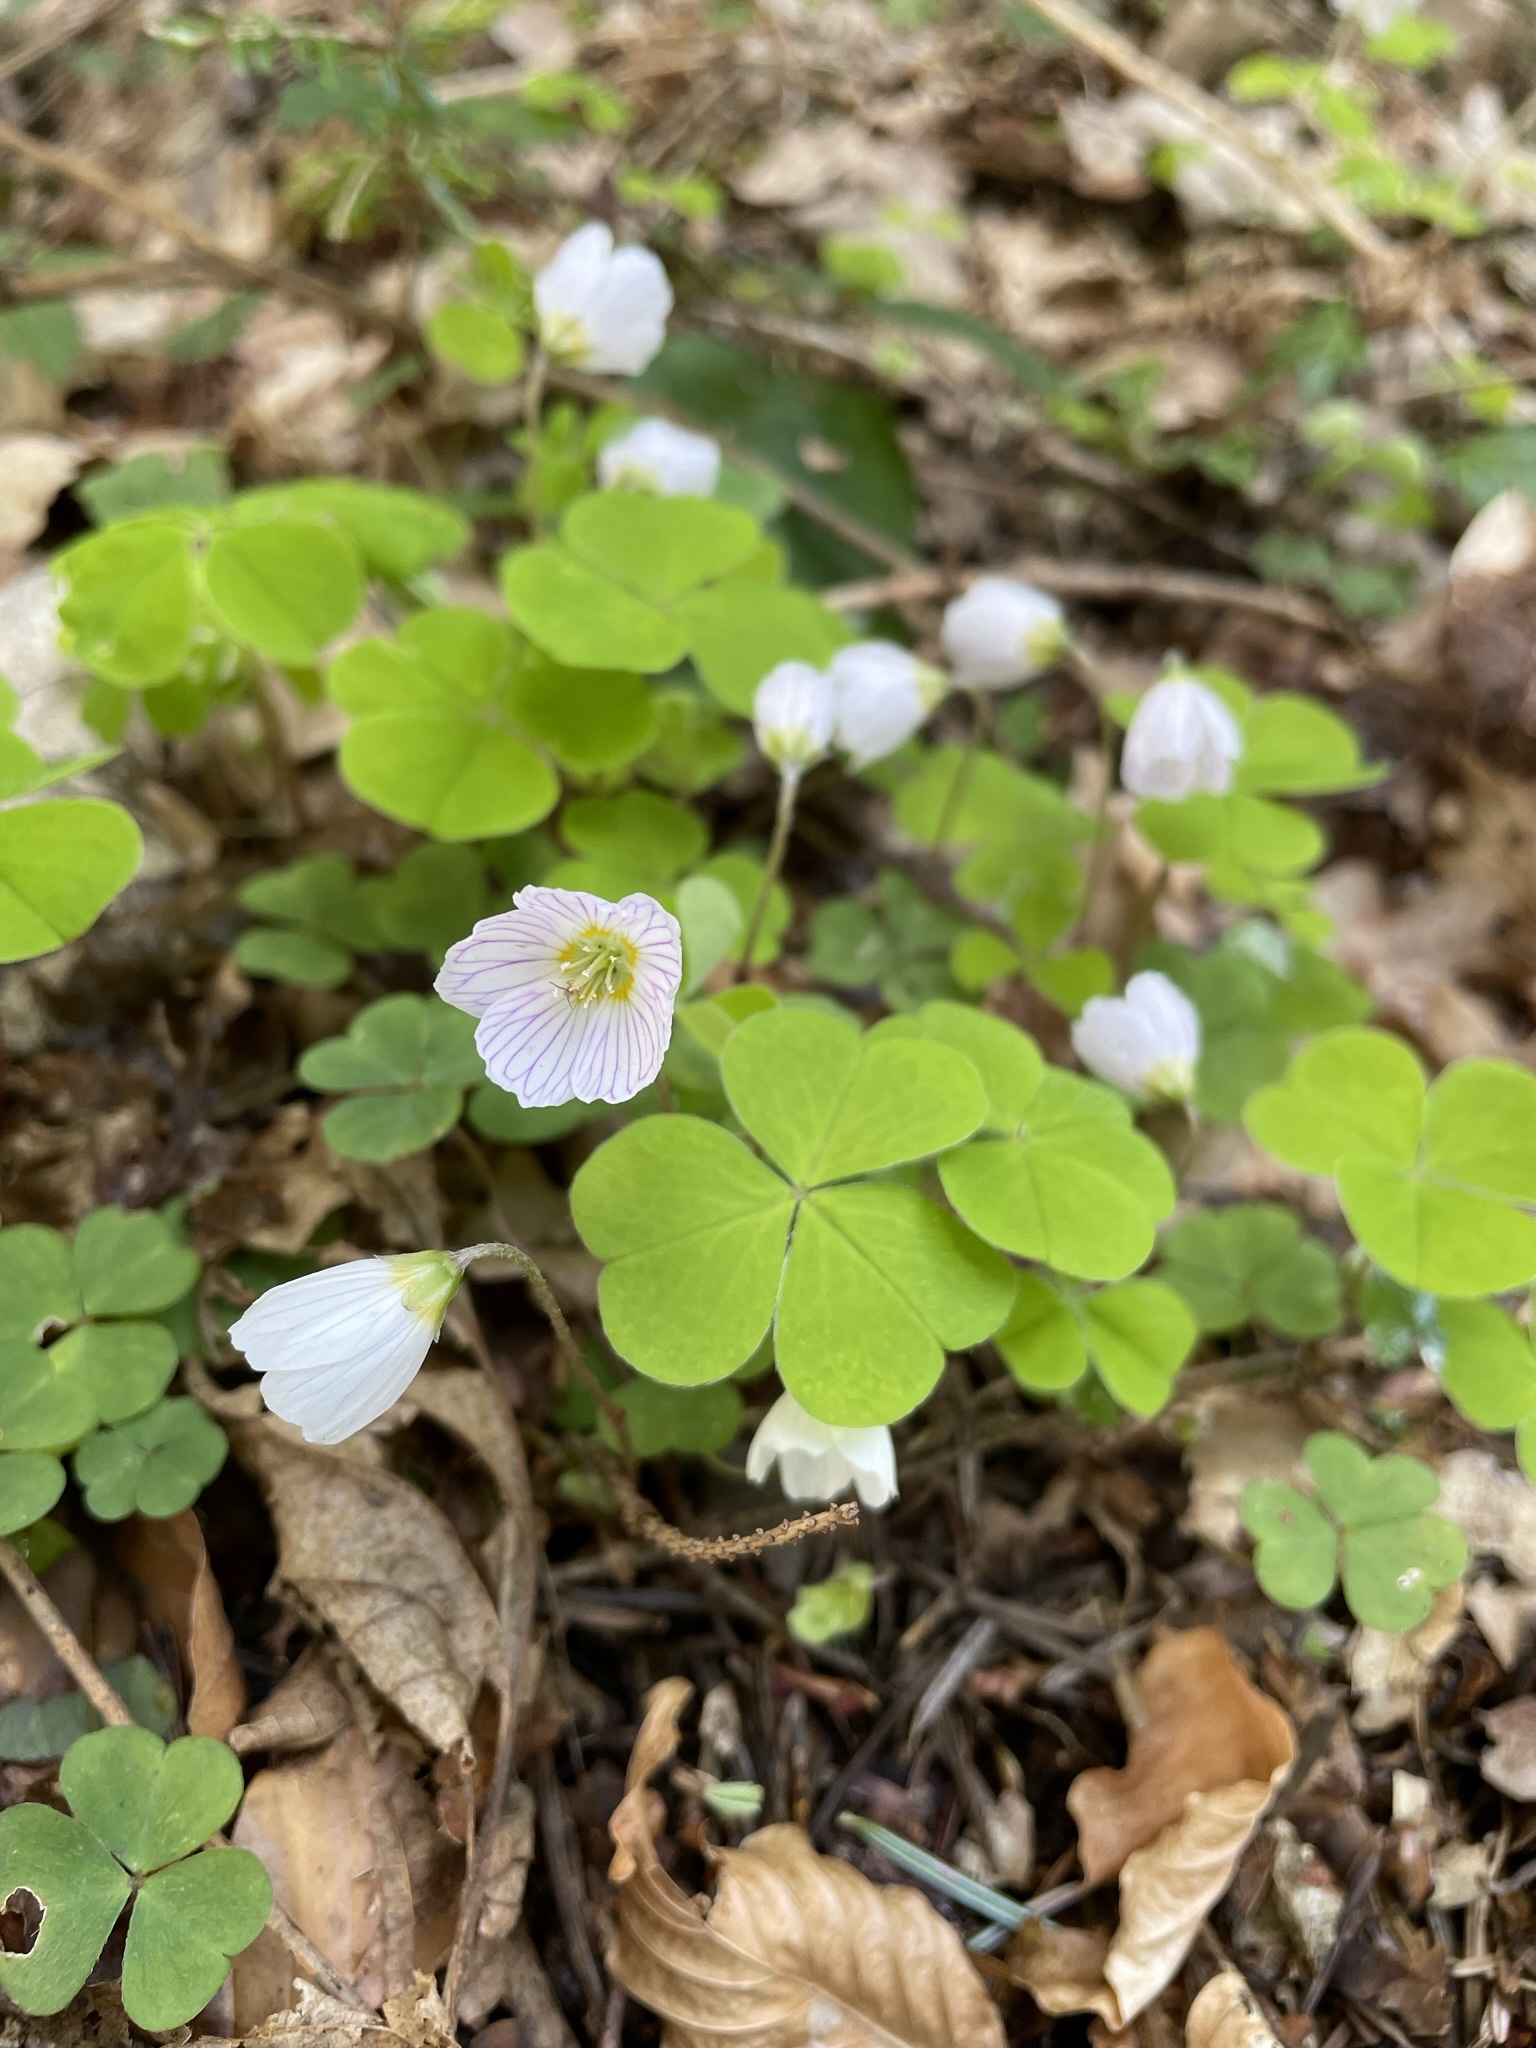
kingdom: Plantae
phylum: Tracheophyta
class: Magnoliopsida
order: Oxalidales
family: Oxalidaceae
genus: Oxalis
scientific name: Oxalis acetosella
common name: Wood-sorrel
